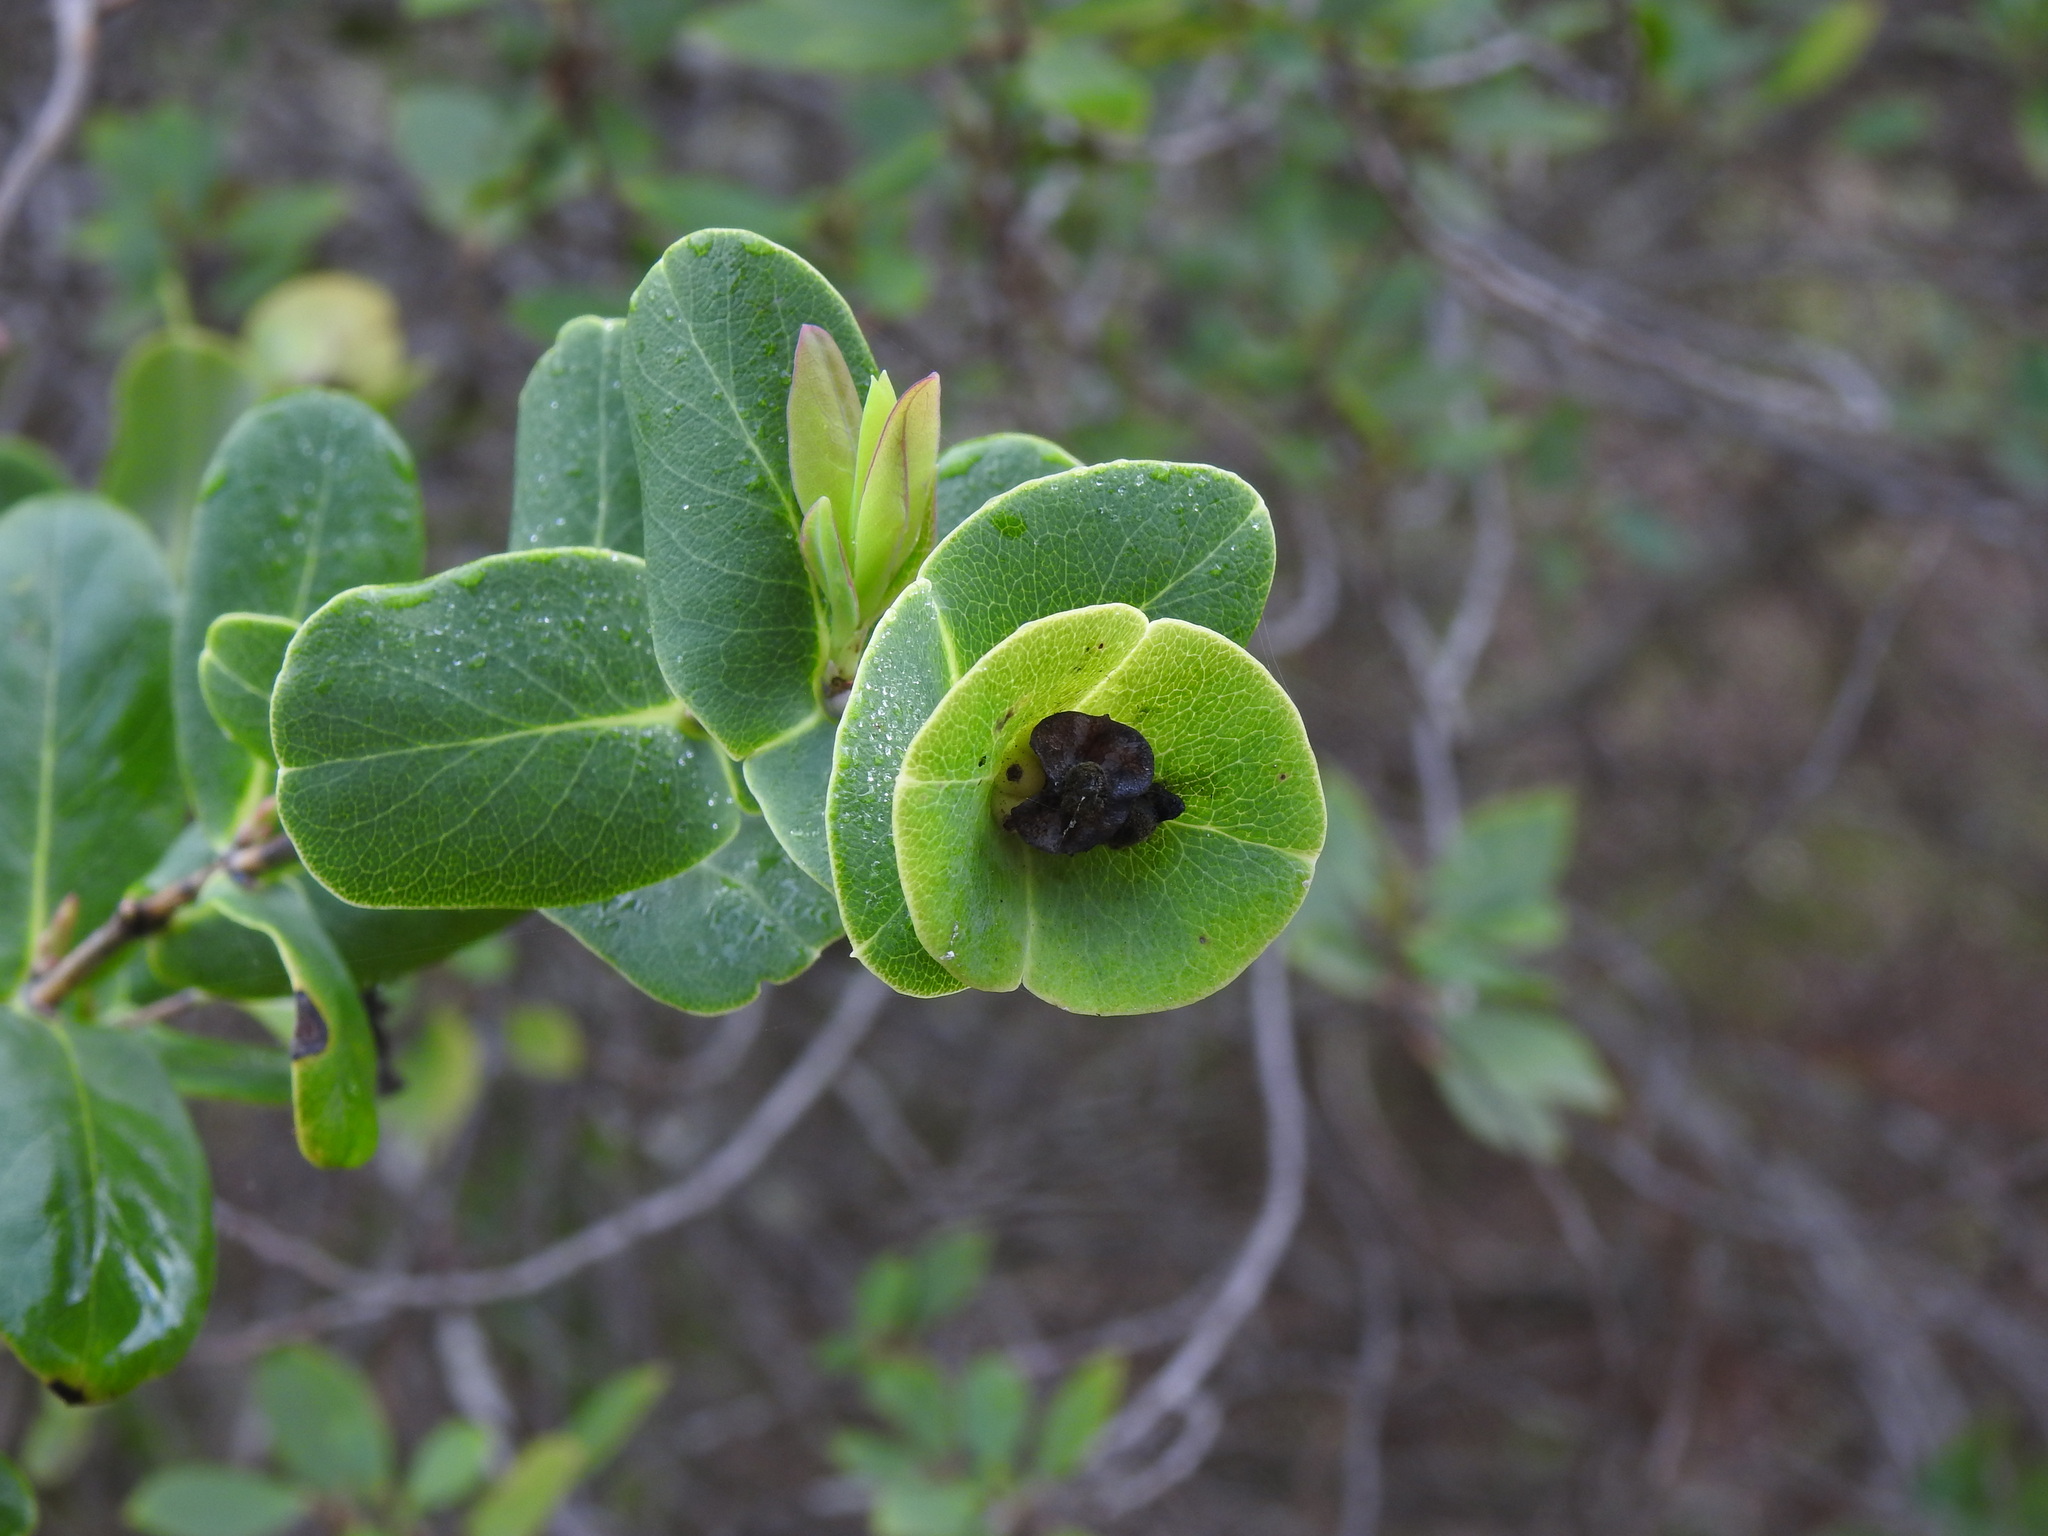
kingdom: Plantae
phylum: Tracheophyta
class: Magnoliopsida
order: Dipsacales
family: Caprifoliaceae
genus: Lonicera
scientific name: Lonicera implexa
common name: Minorca honeysuckle
